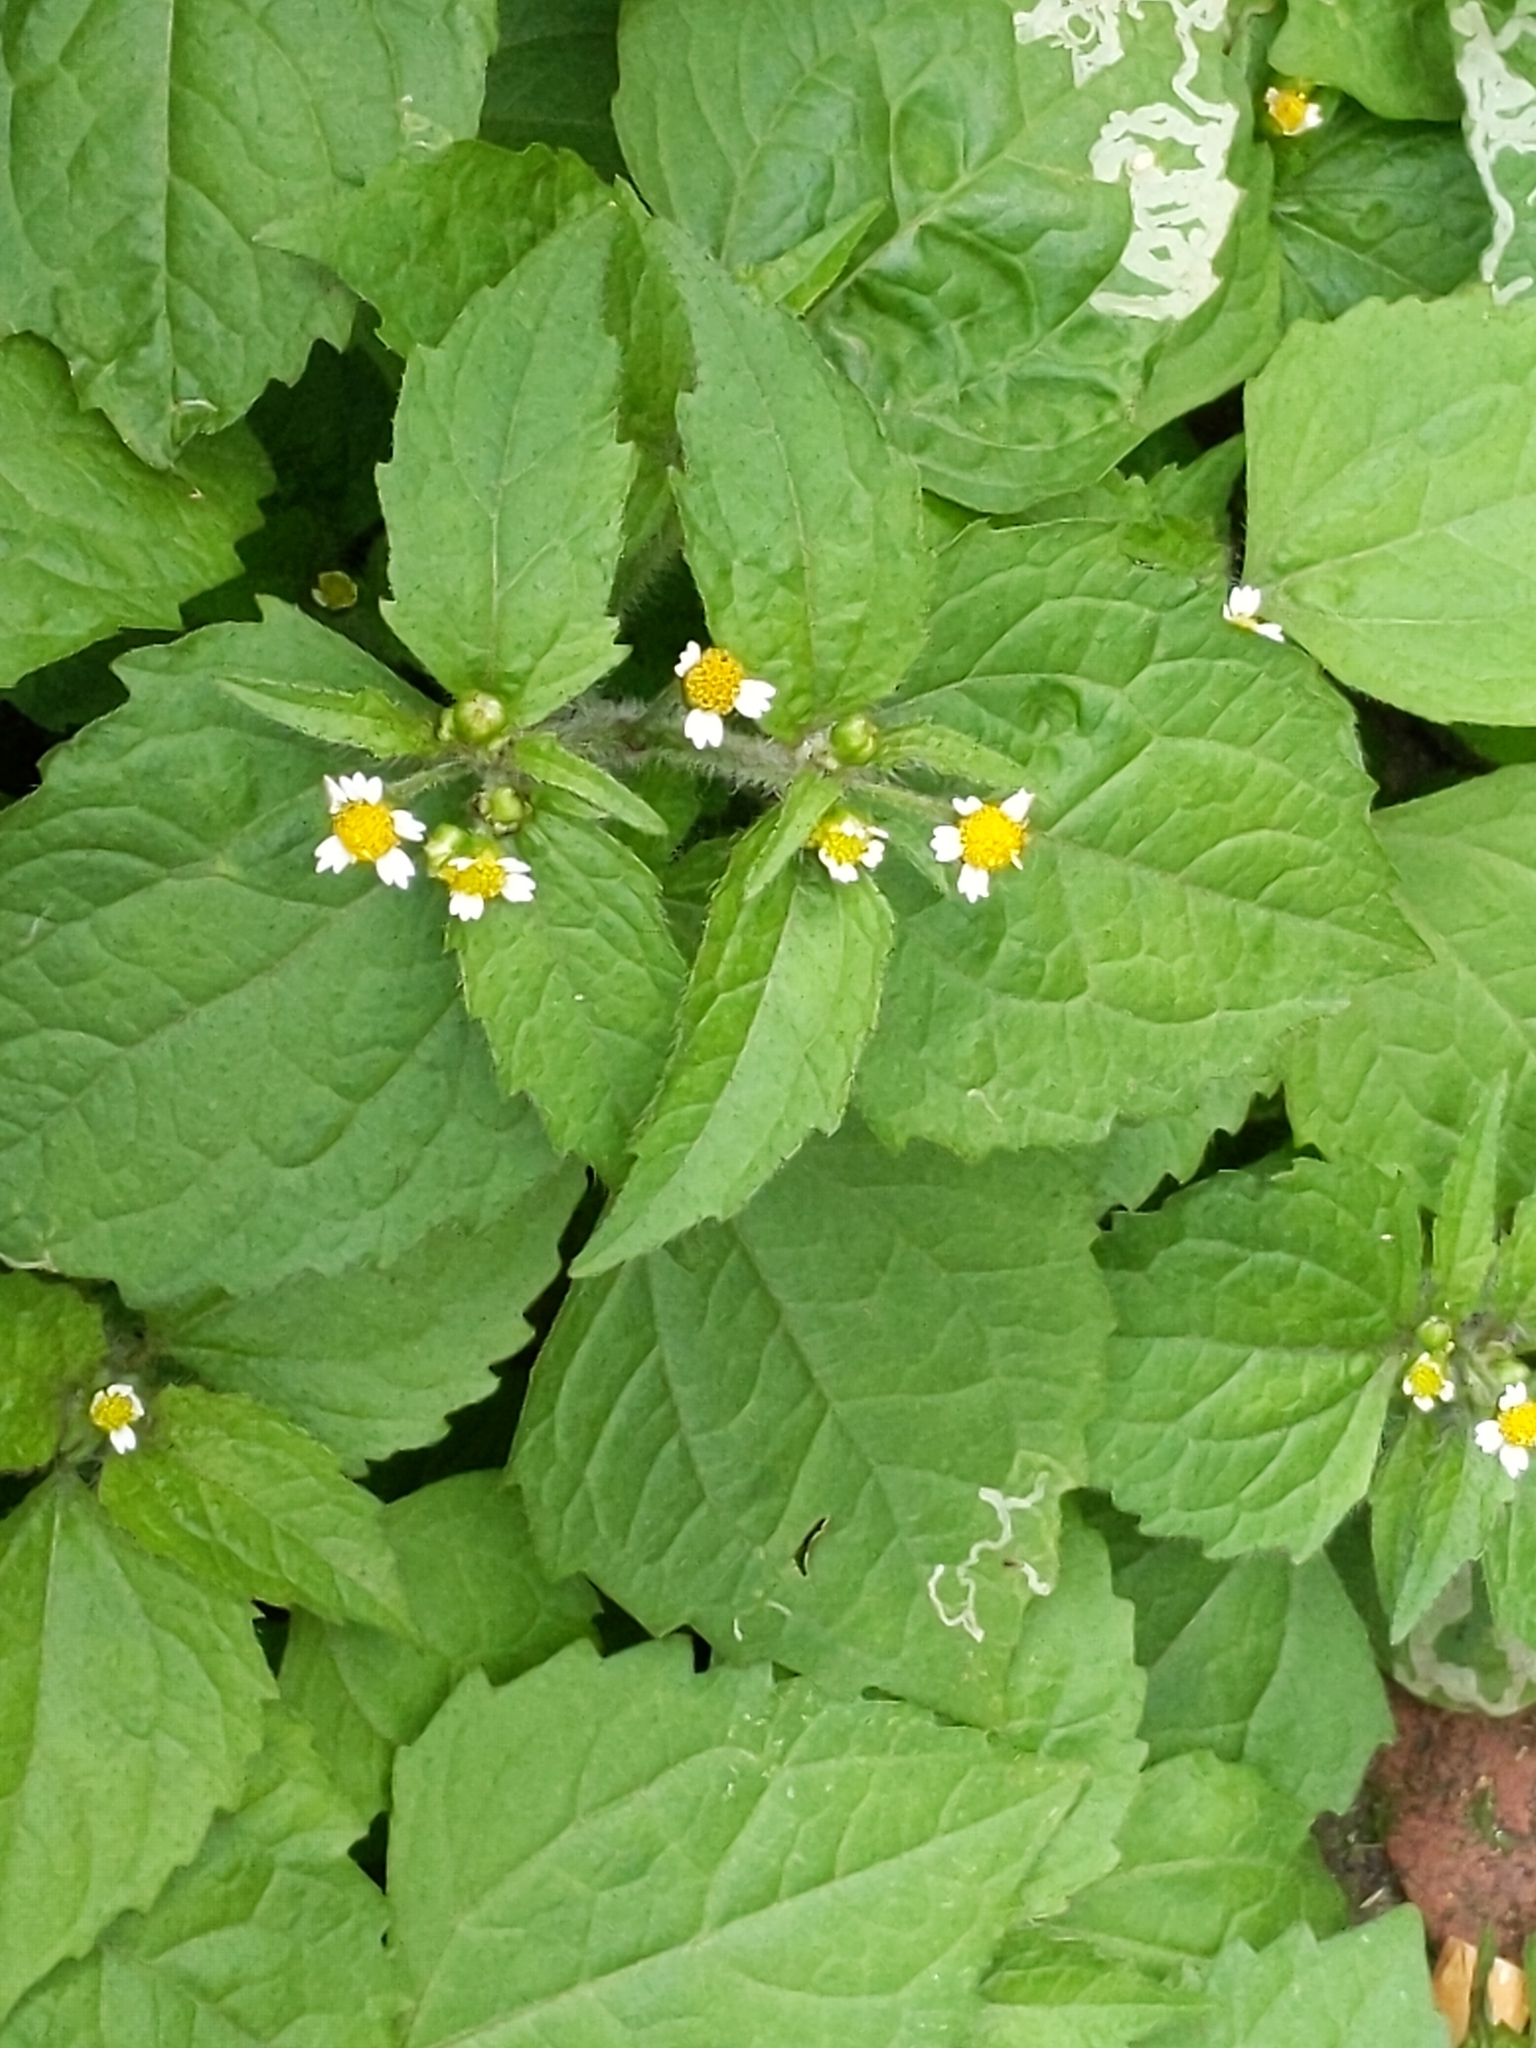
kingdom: Plantae
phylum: Tracheophyta
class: Magnoliopsida
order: Asterales
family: Asteraceae
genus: Galinsoga
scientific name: Galinsoga quadriradiata
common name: Shaggy soldier
